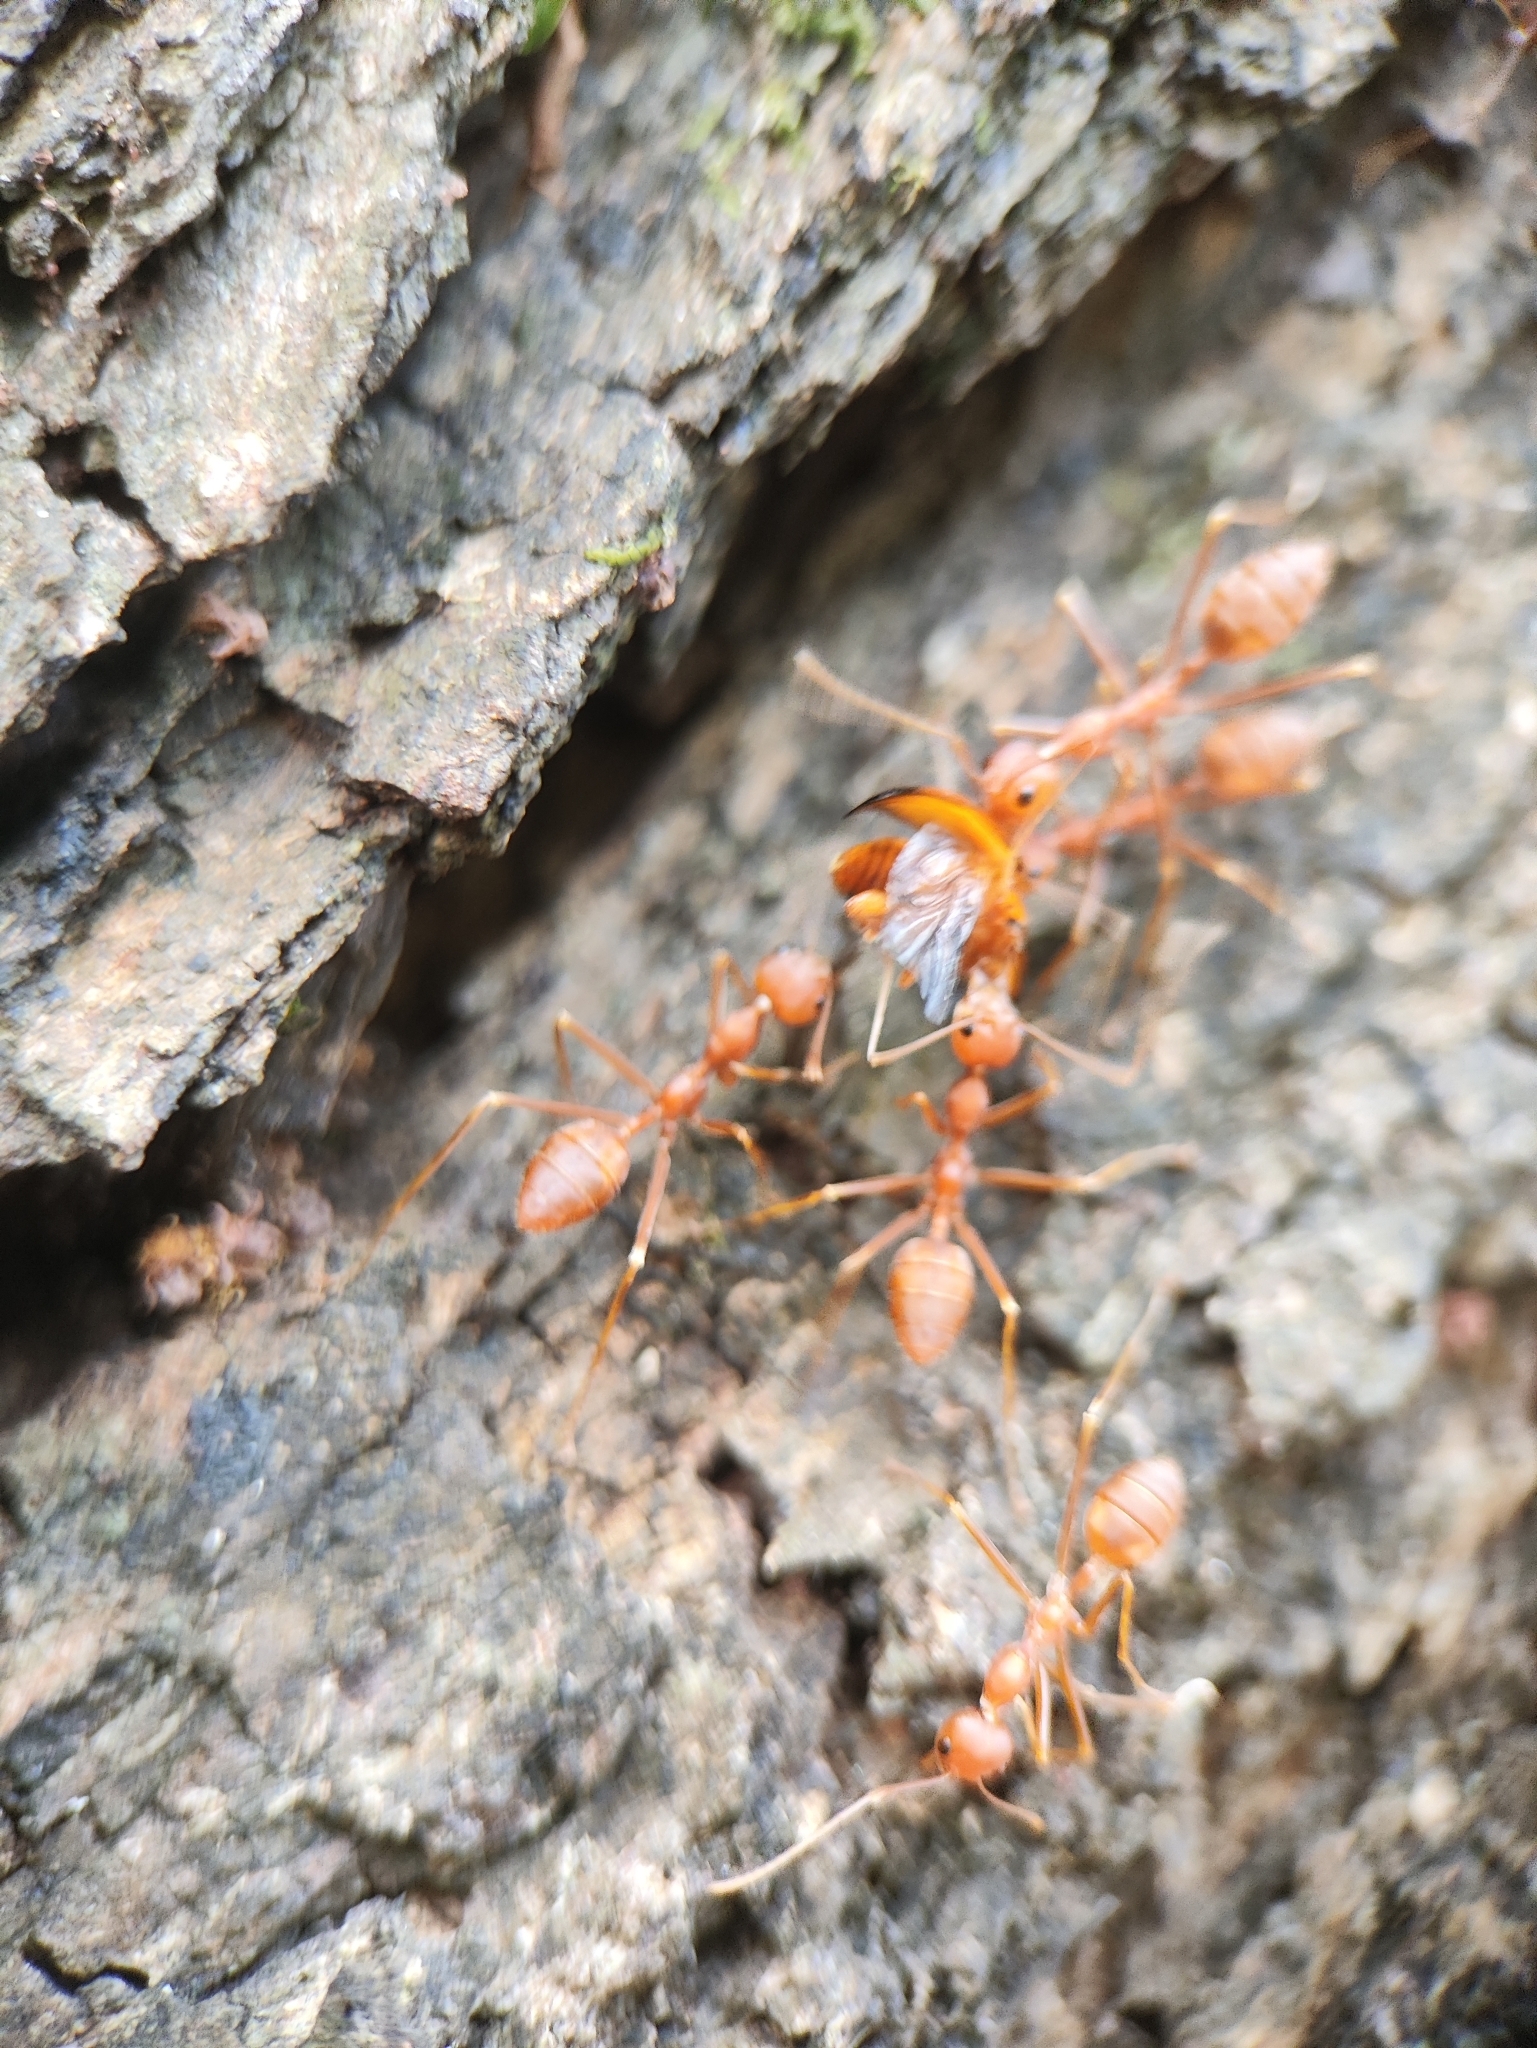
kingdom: Animalia
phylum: Arthropoda
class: Insecta
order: Hymenoptera
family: Formicidae
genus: Oecophylla
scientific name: Oecophylla smaragdina
